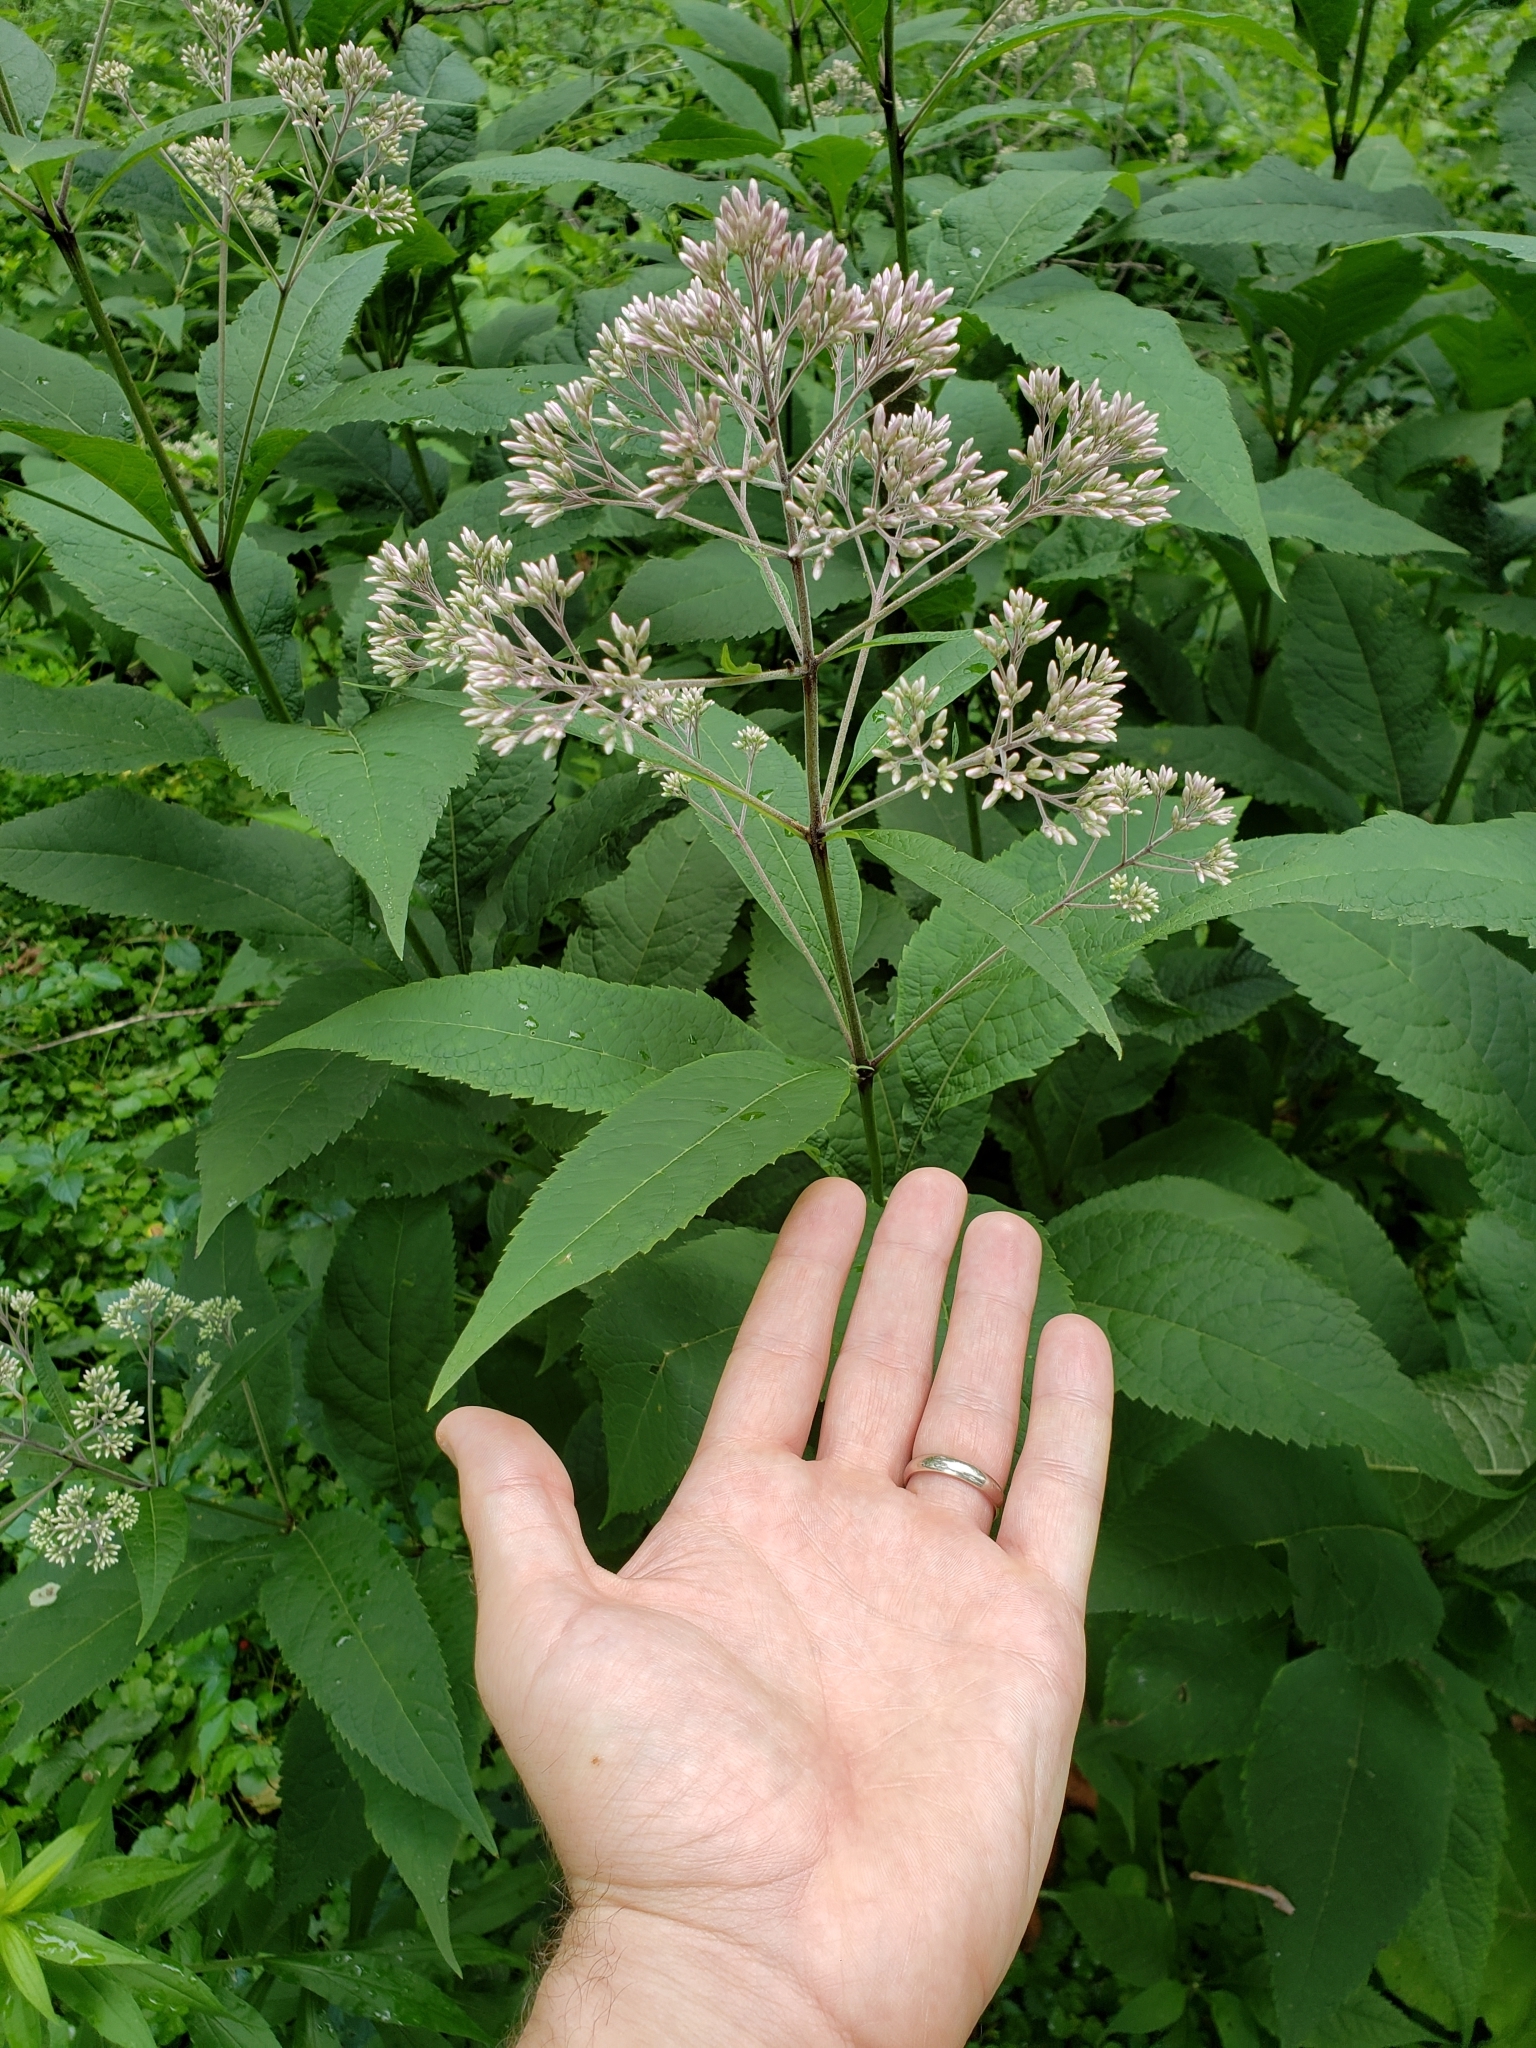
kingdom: Plantae
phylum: Tracheophyta
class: Magnoliopsida
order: Asterales
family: Asteraceae
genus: Eutrochium
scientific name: Eutrochium purpureum
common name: Gravelroot
